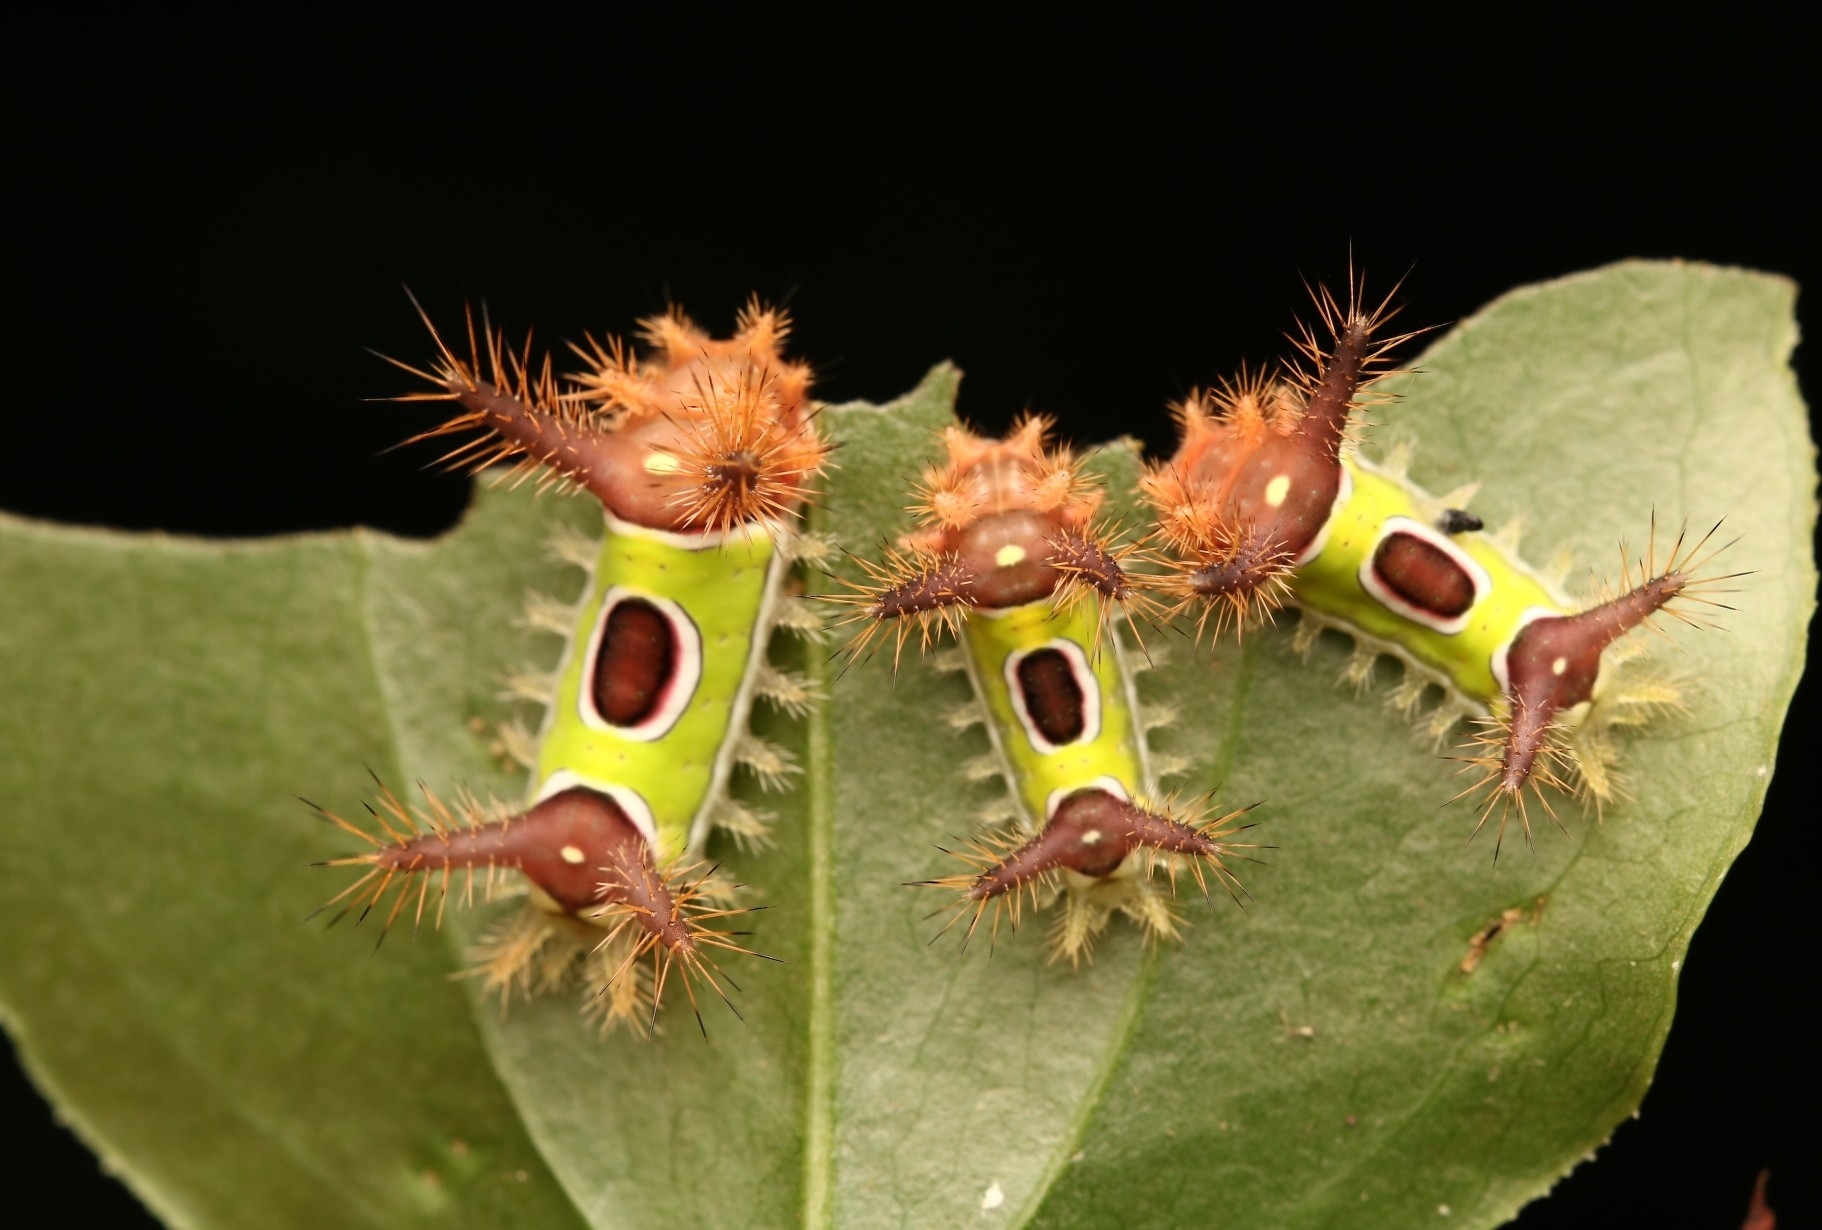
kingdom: Animalia
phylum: Arthropoda
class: Insecta
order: Lepidoptera
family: Limacodidae
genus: Acharia
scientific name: Acharia stimulea
